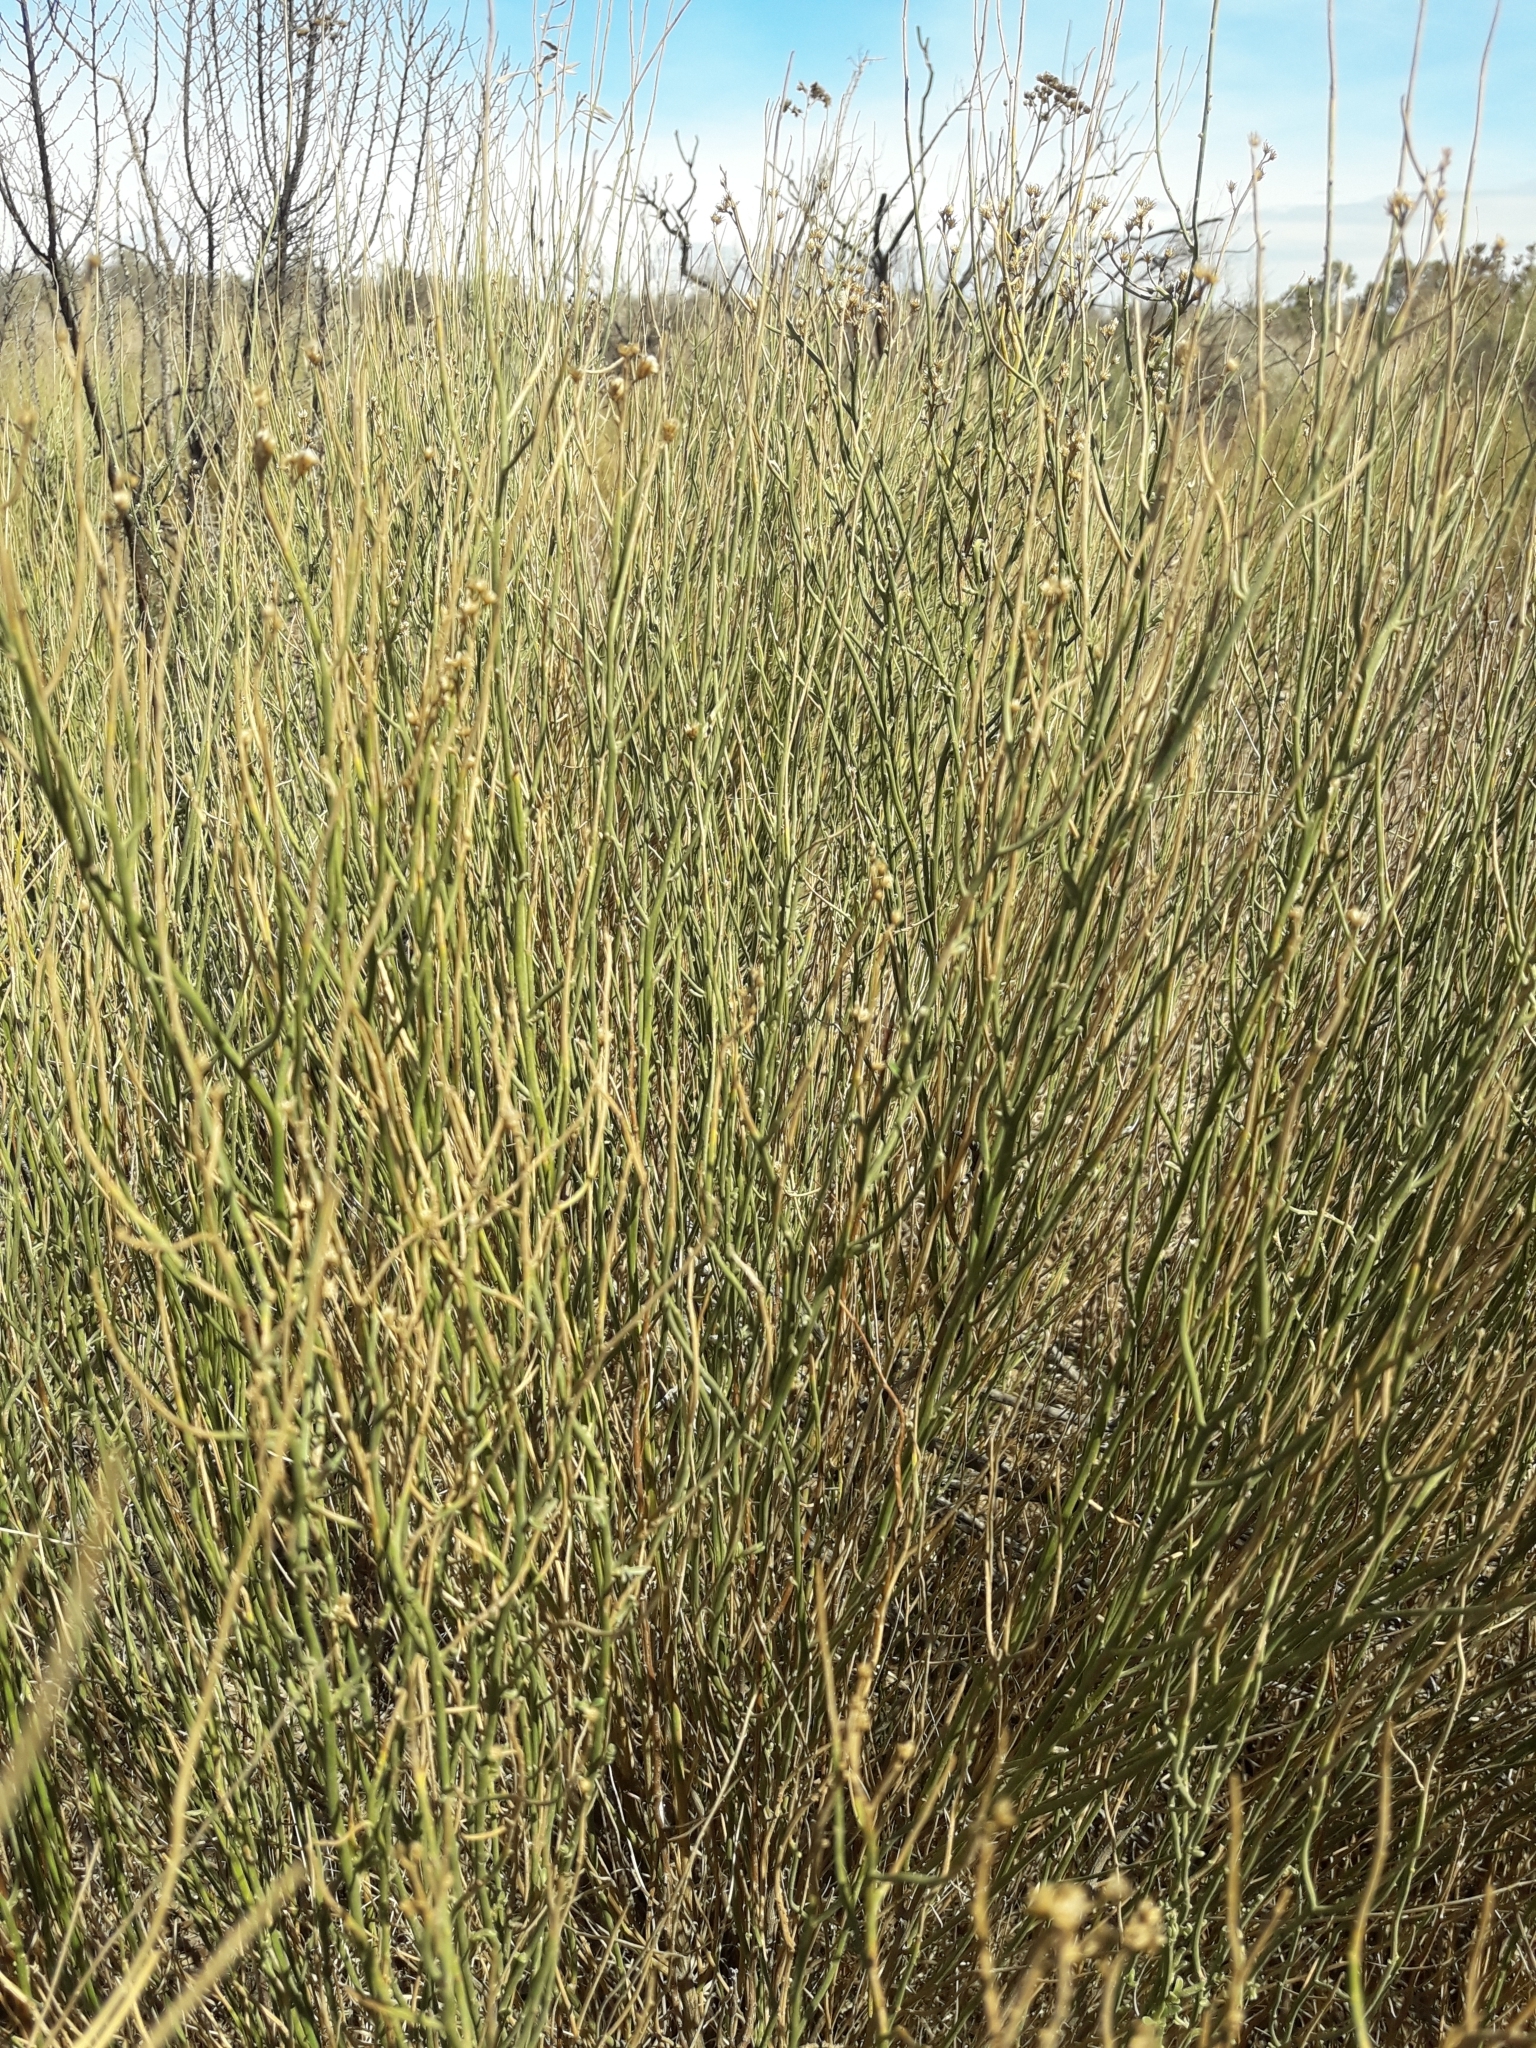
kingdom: Plantae
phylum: Tracheophyta
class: Magnoliopsida
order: Asterales
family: Asteraceae
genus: Pseudobaccharis
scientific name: Pseudobaccharis spartioides
